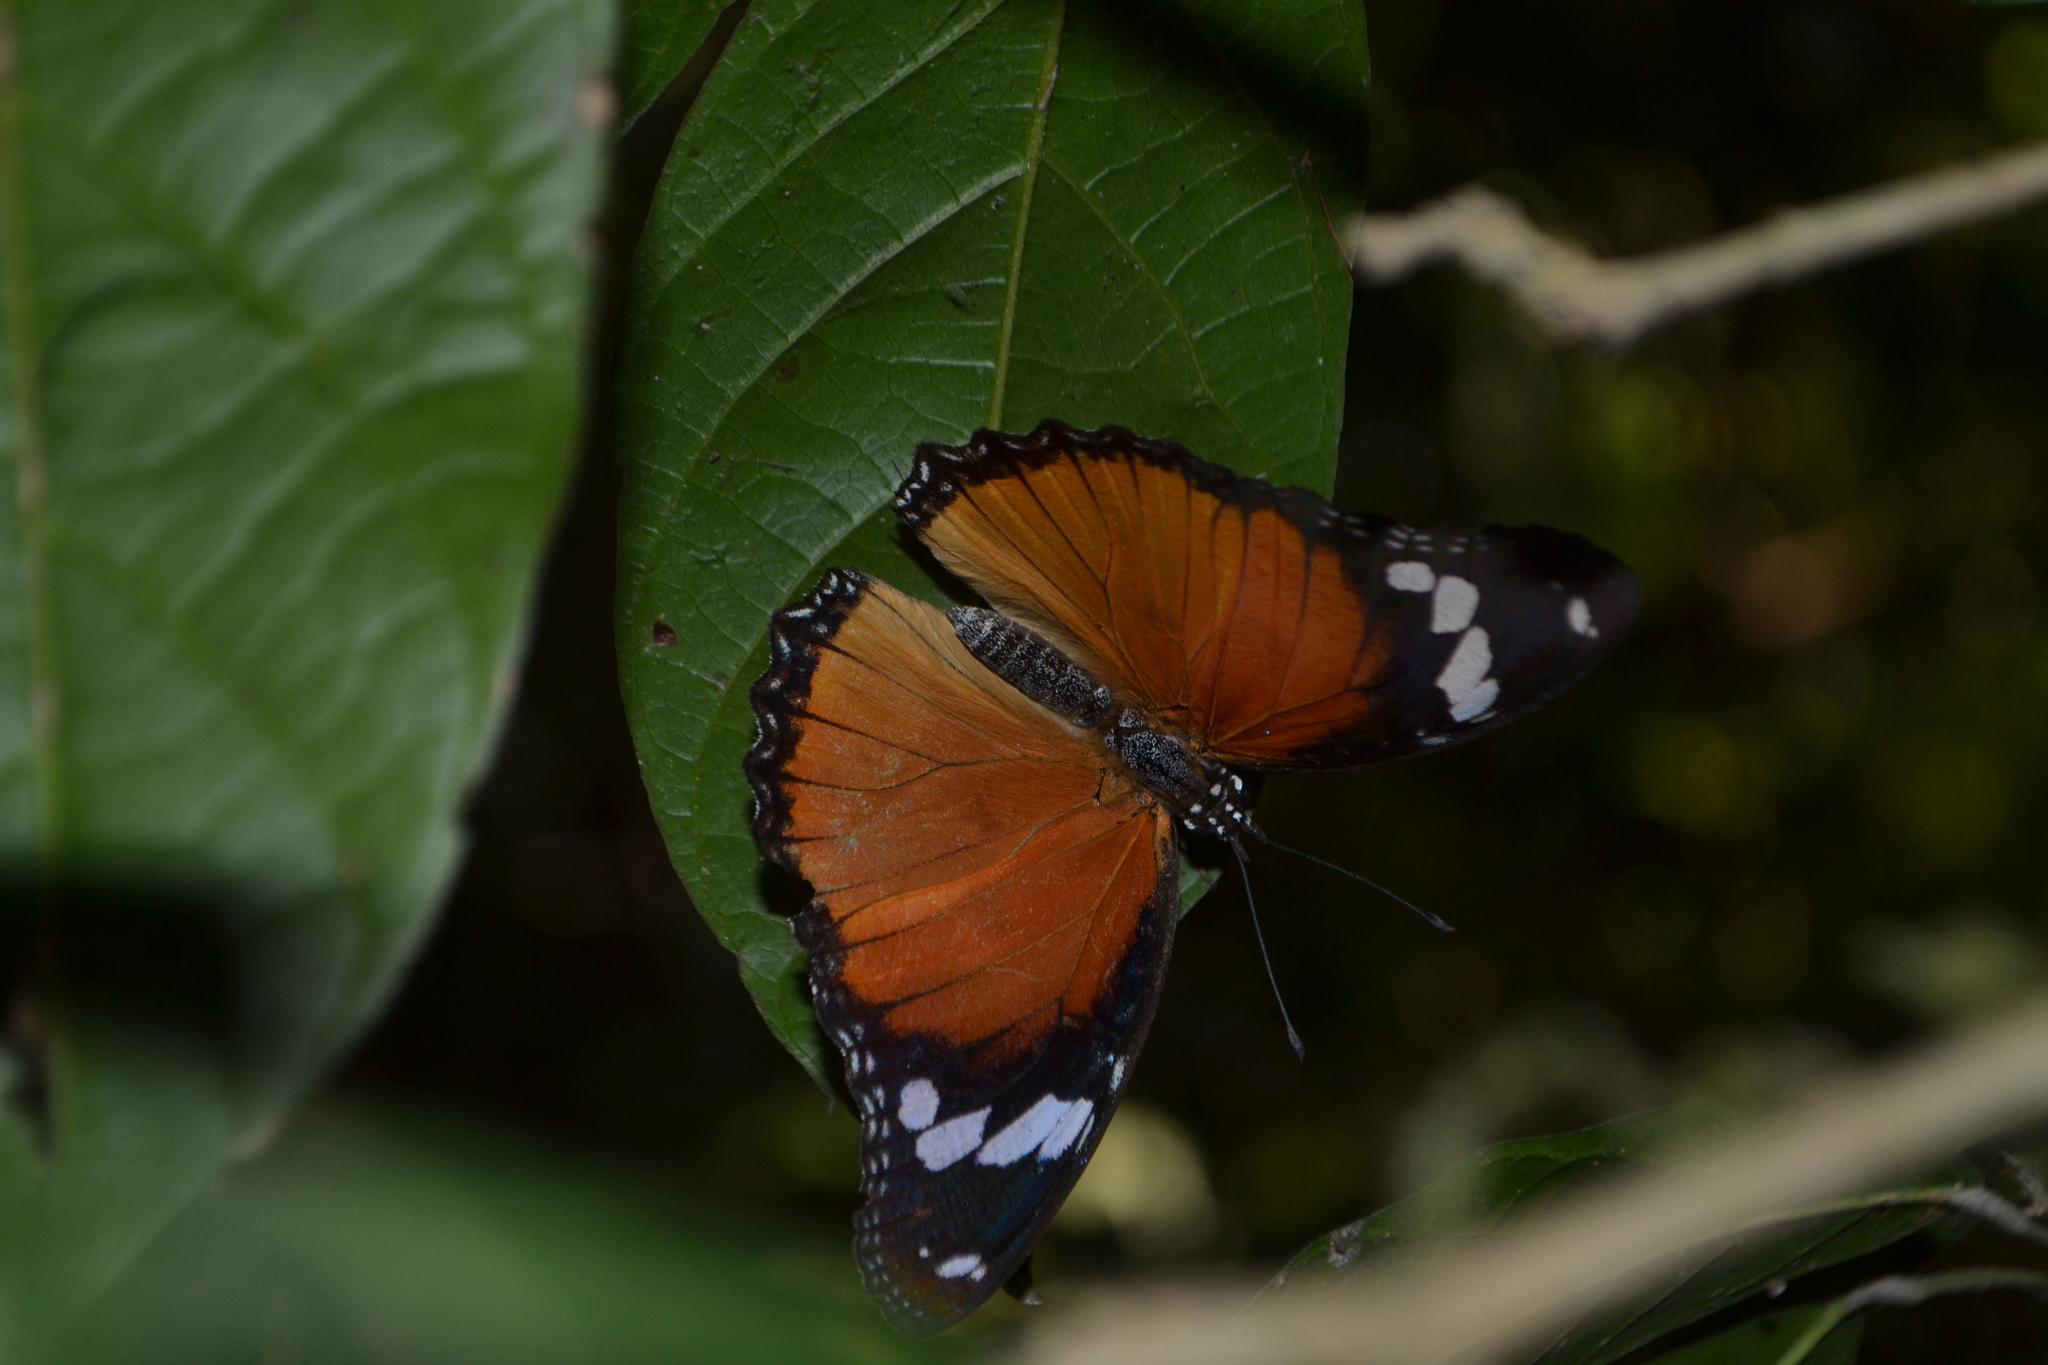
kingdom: Animalia
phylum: Arthropoda
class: Insecta
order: Lepidoptera
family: Nymphalidae
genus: Hypolimnas
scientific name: Hypolimnas misippus
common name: False plain tiger
